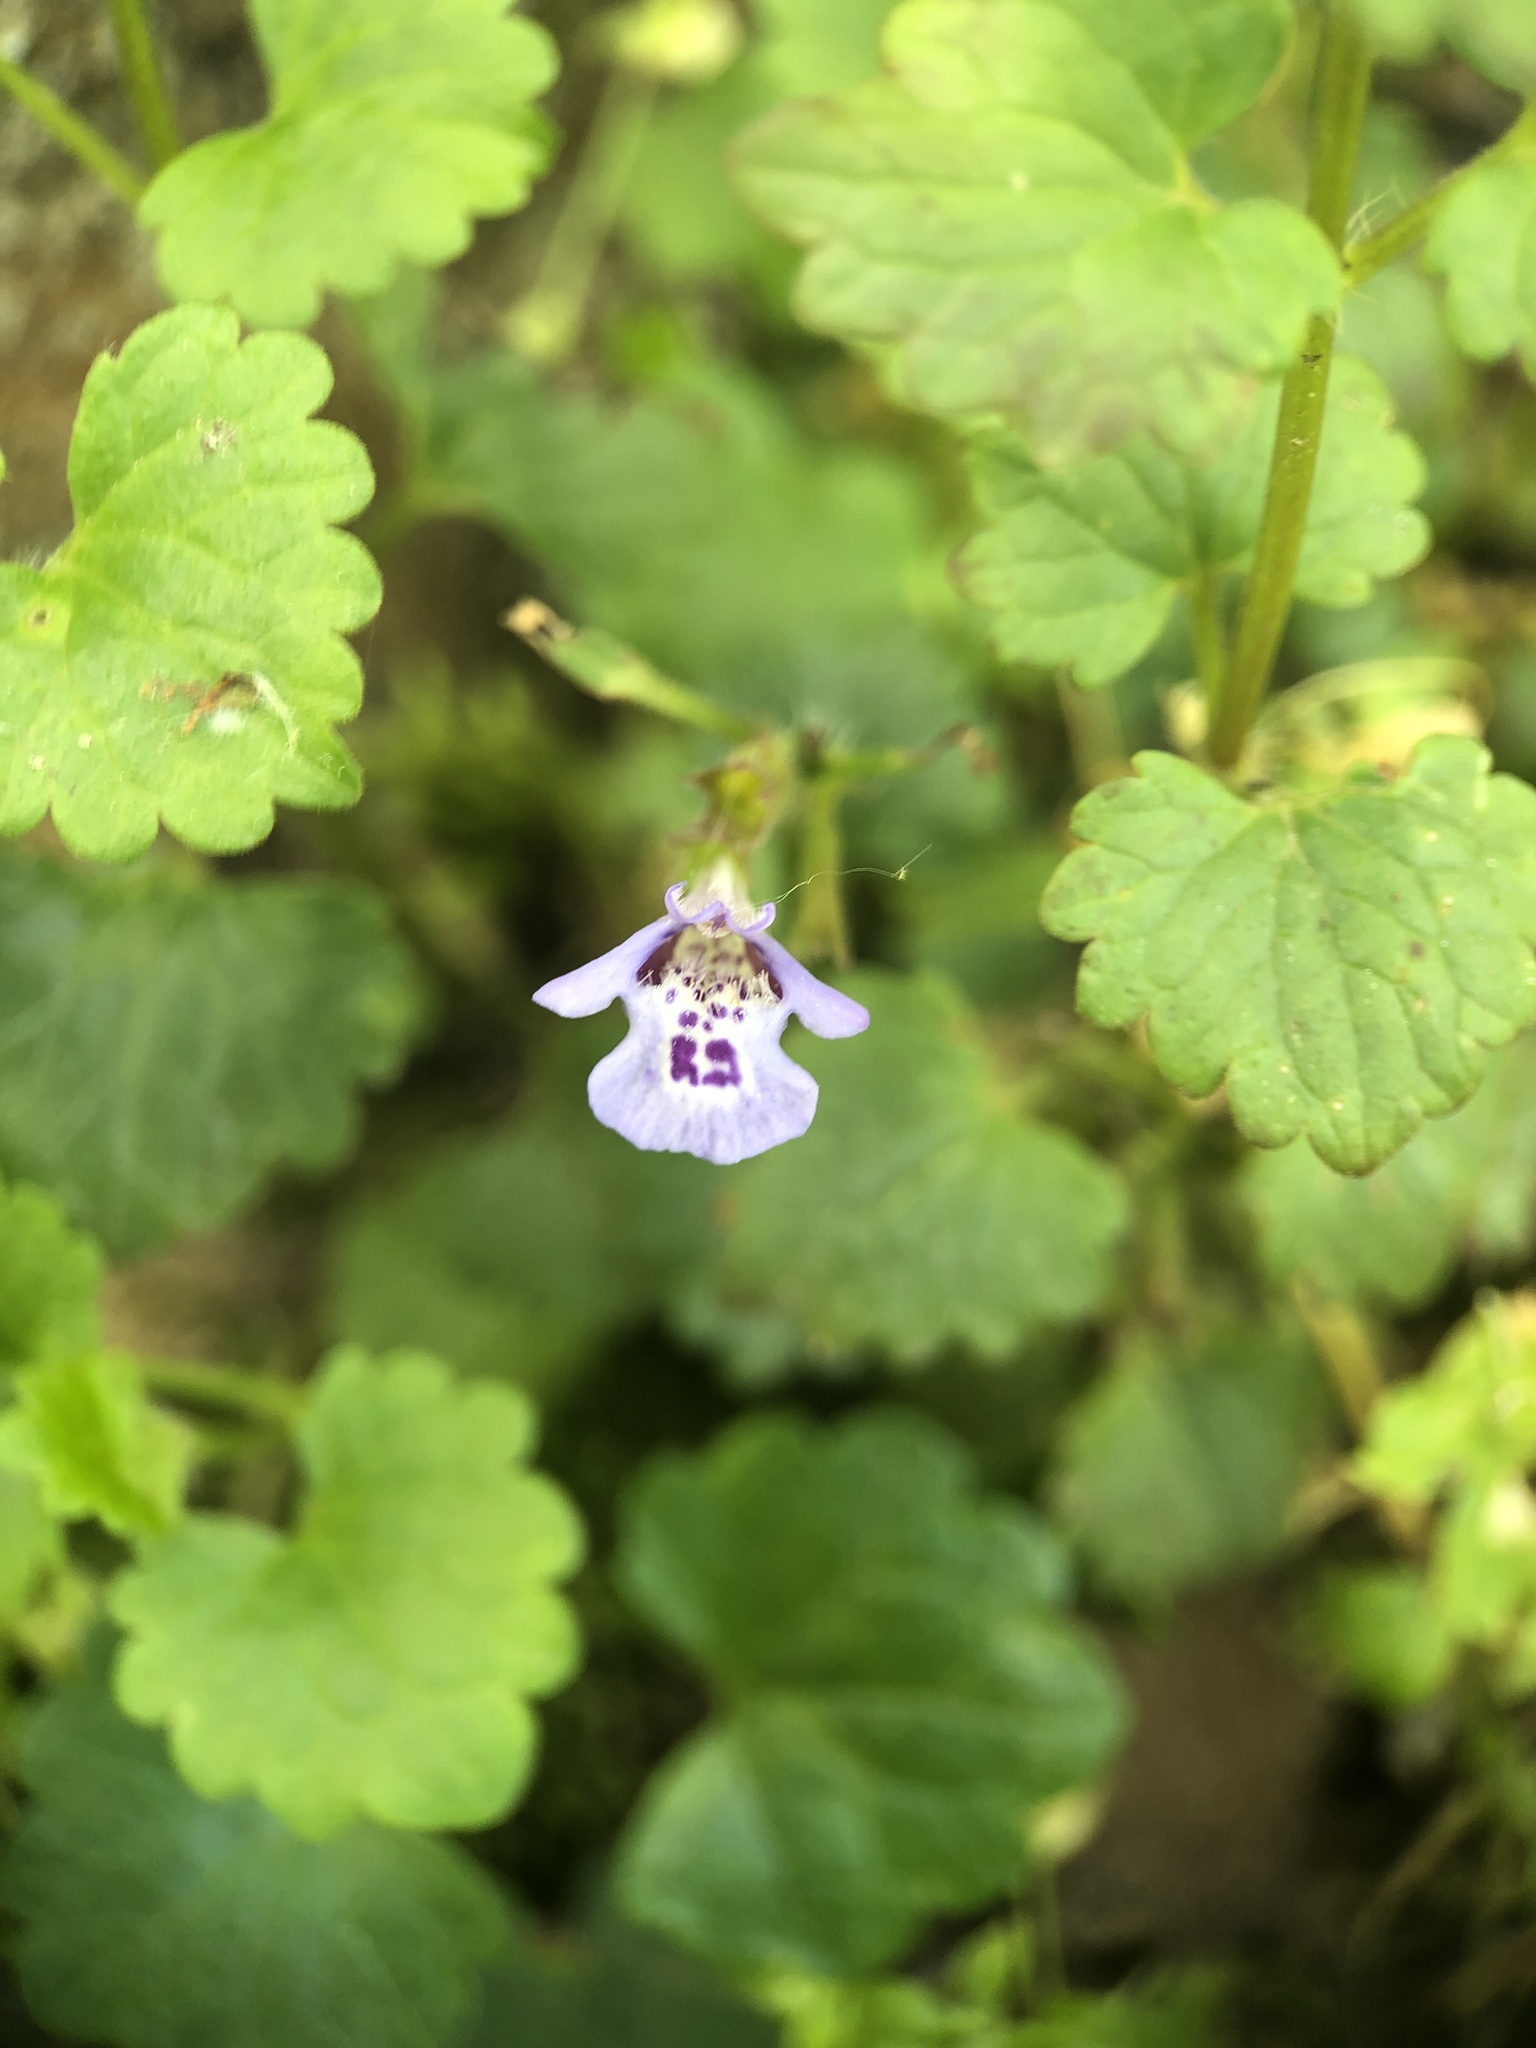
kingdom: Plantae
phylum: Tracheophyta
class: Magnoliopsida
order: Lamiales
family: Lamiaceae
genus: Glechoma
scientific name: Glechoma hederacea
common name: Ground ivy
